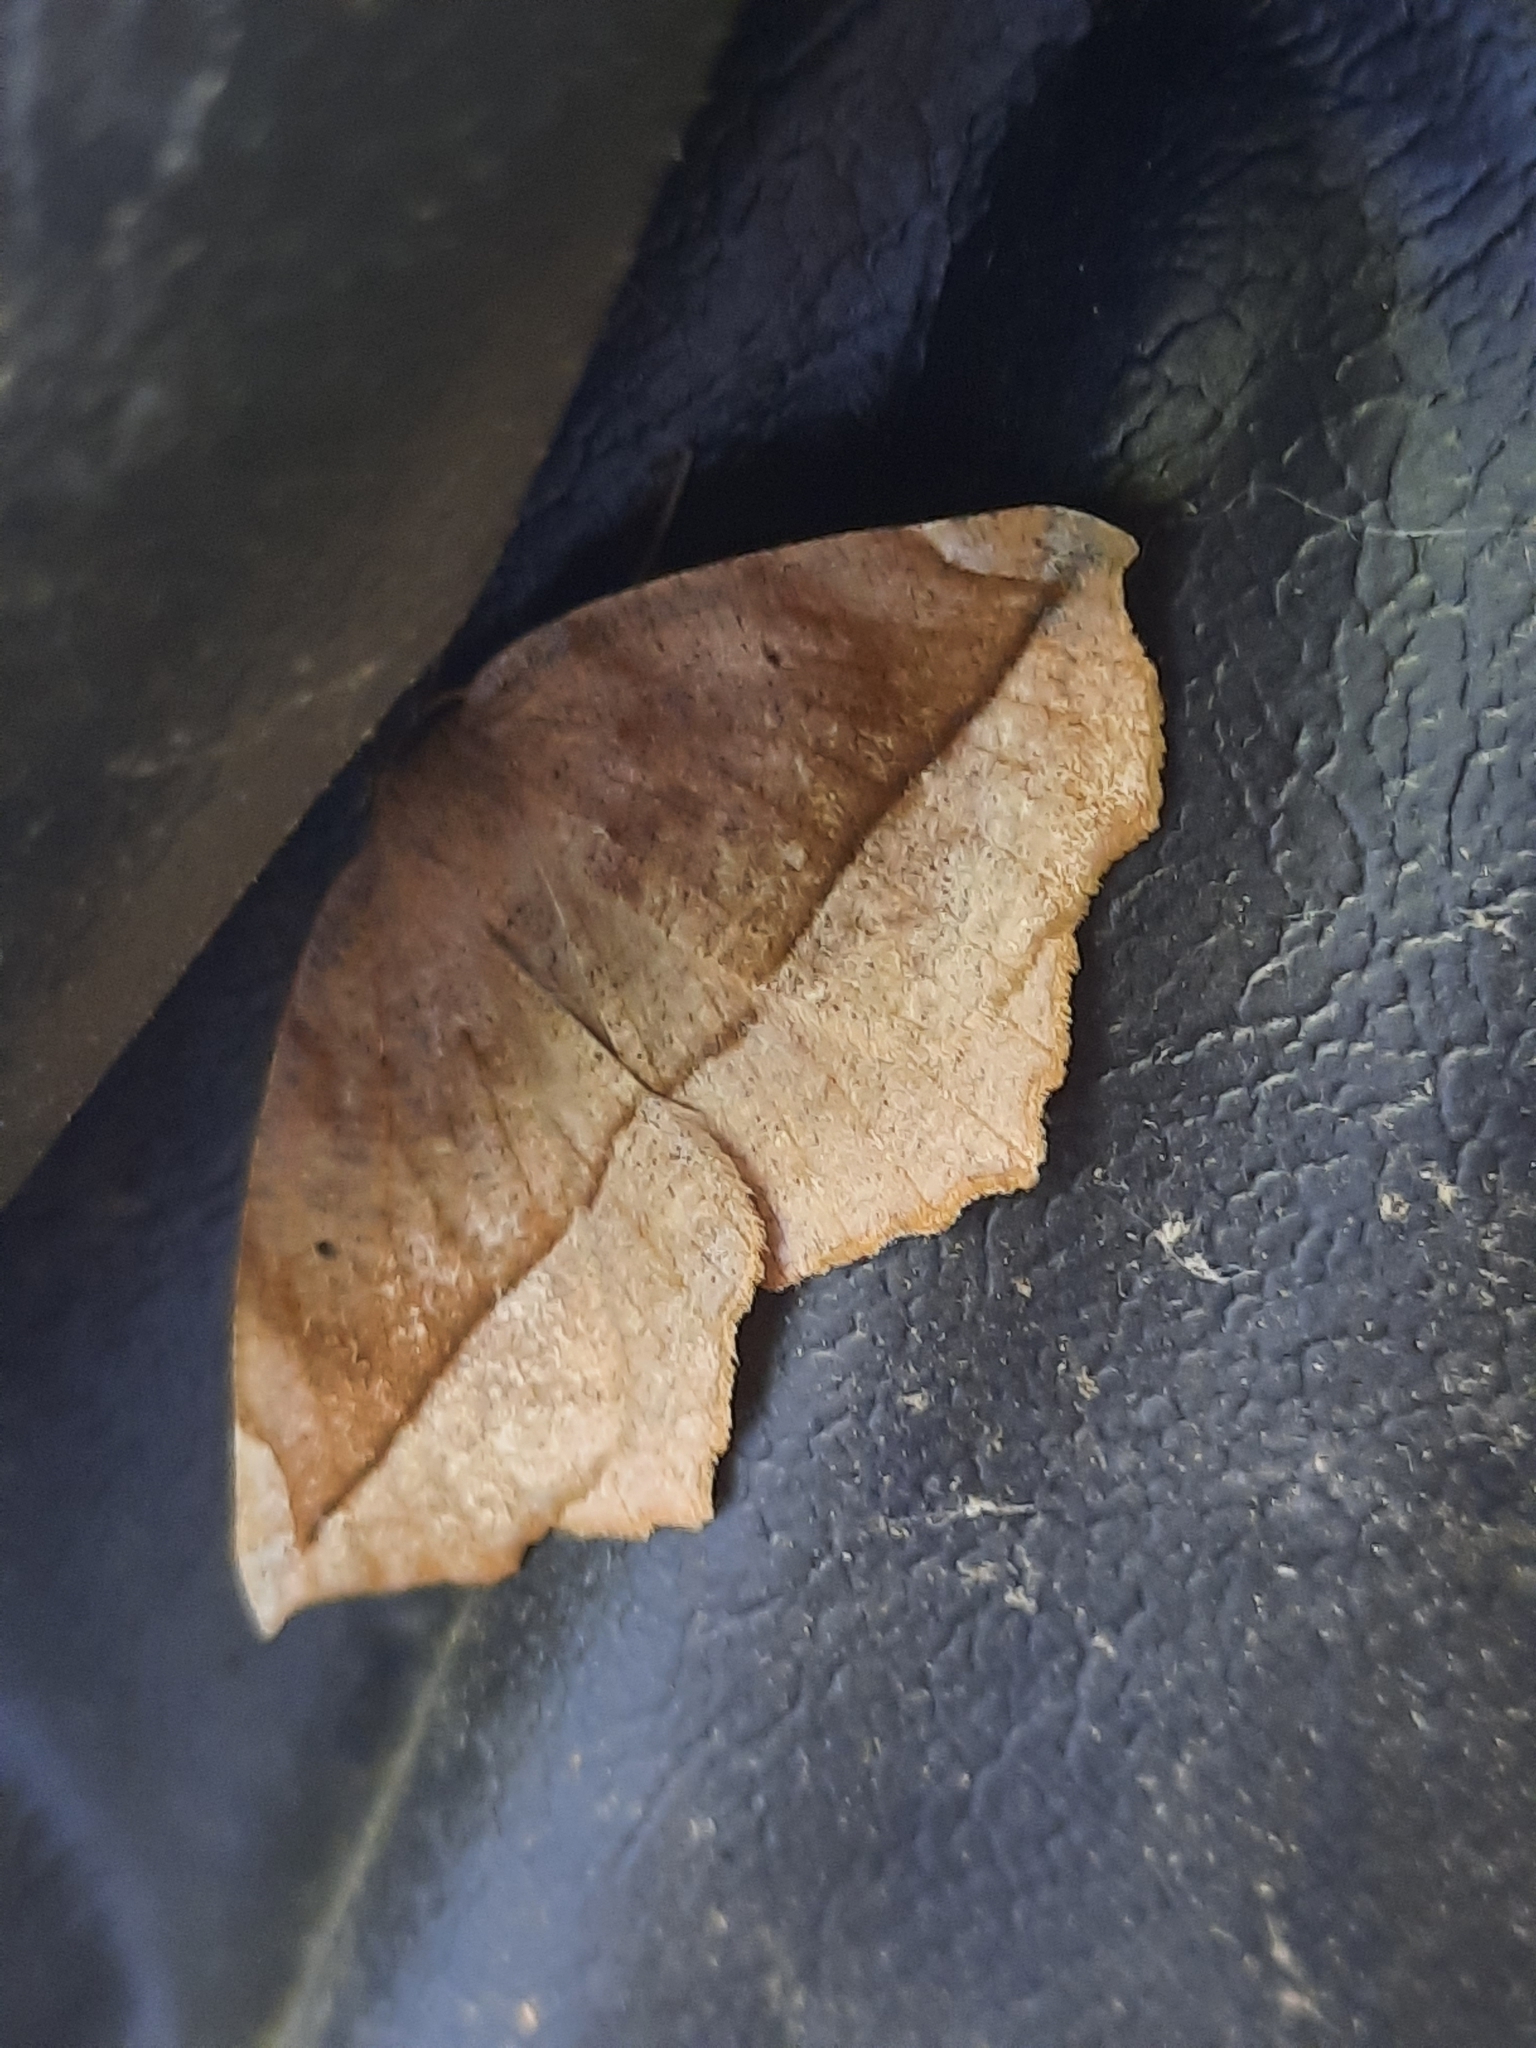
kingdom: Animalia
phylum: Arthropoda
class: Insecta
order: Lepidoptera
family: Geometridae
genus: Eutrapela
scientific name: Eutrapela clemataria
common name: Curved-toothed geometer
